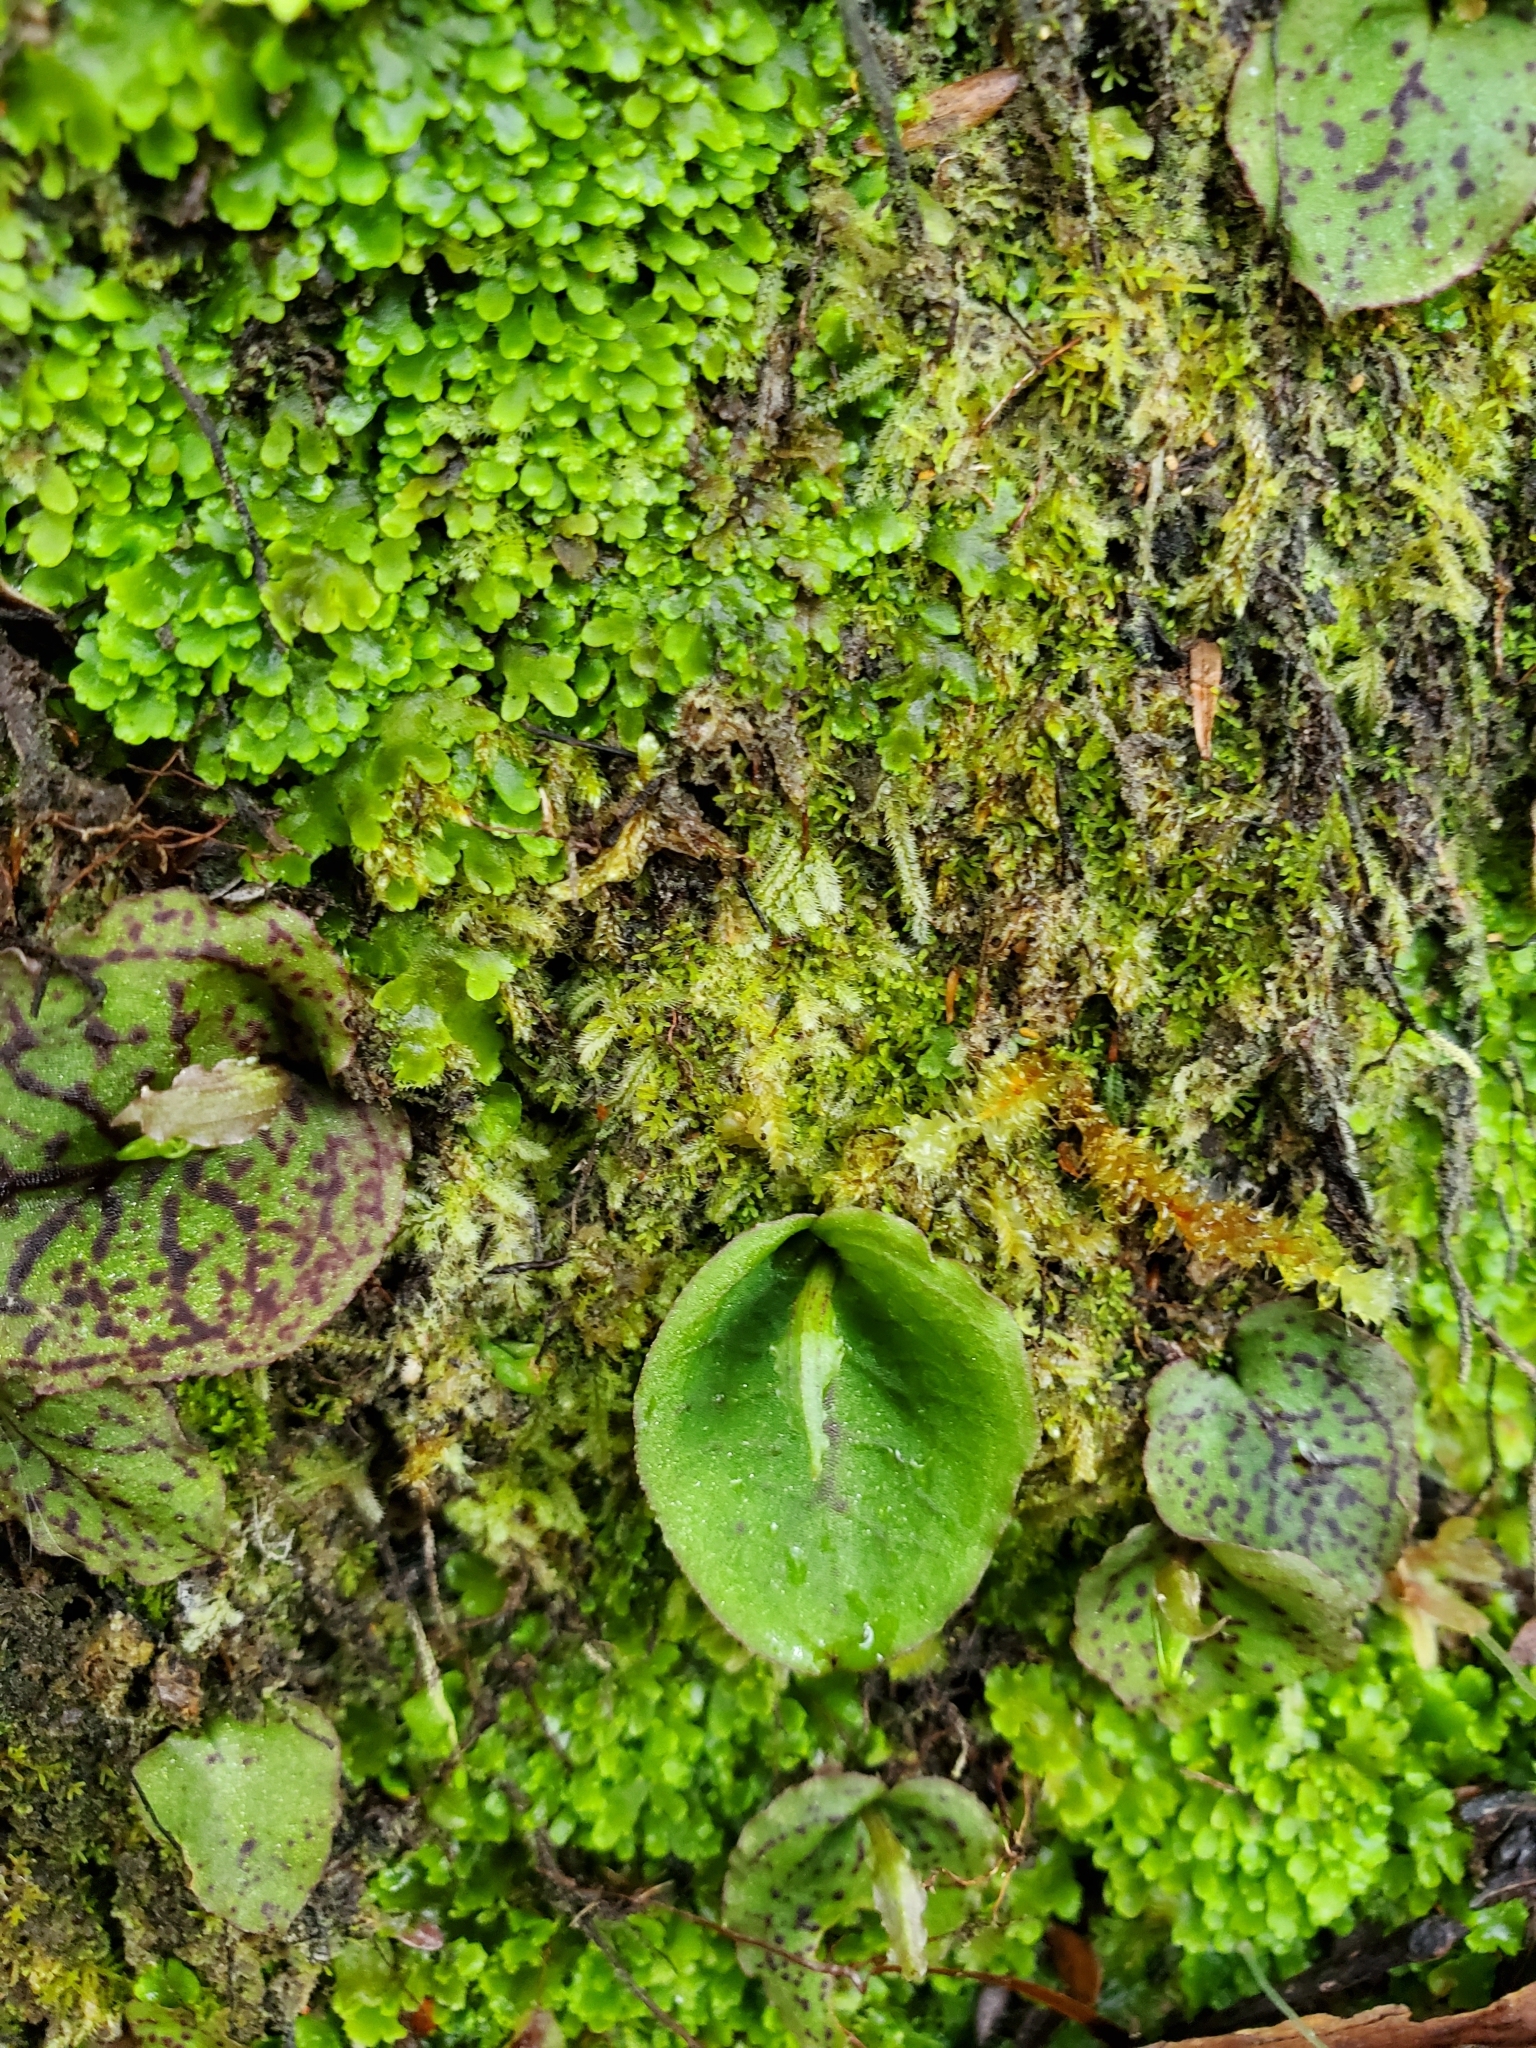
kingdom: Plantae
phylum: Tracheophyta
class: Liliopsida
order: Asparagales
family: Orchidaceae
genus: Corybas
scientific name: Corybas oblongus
